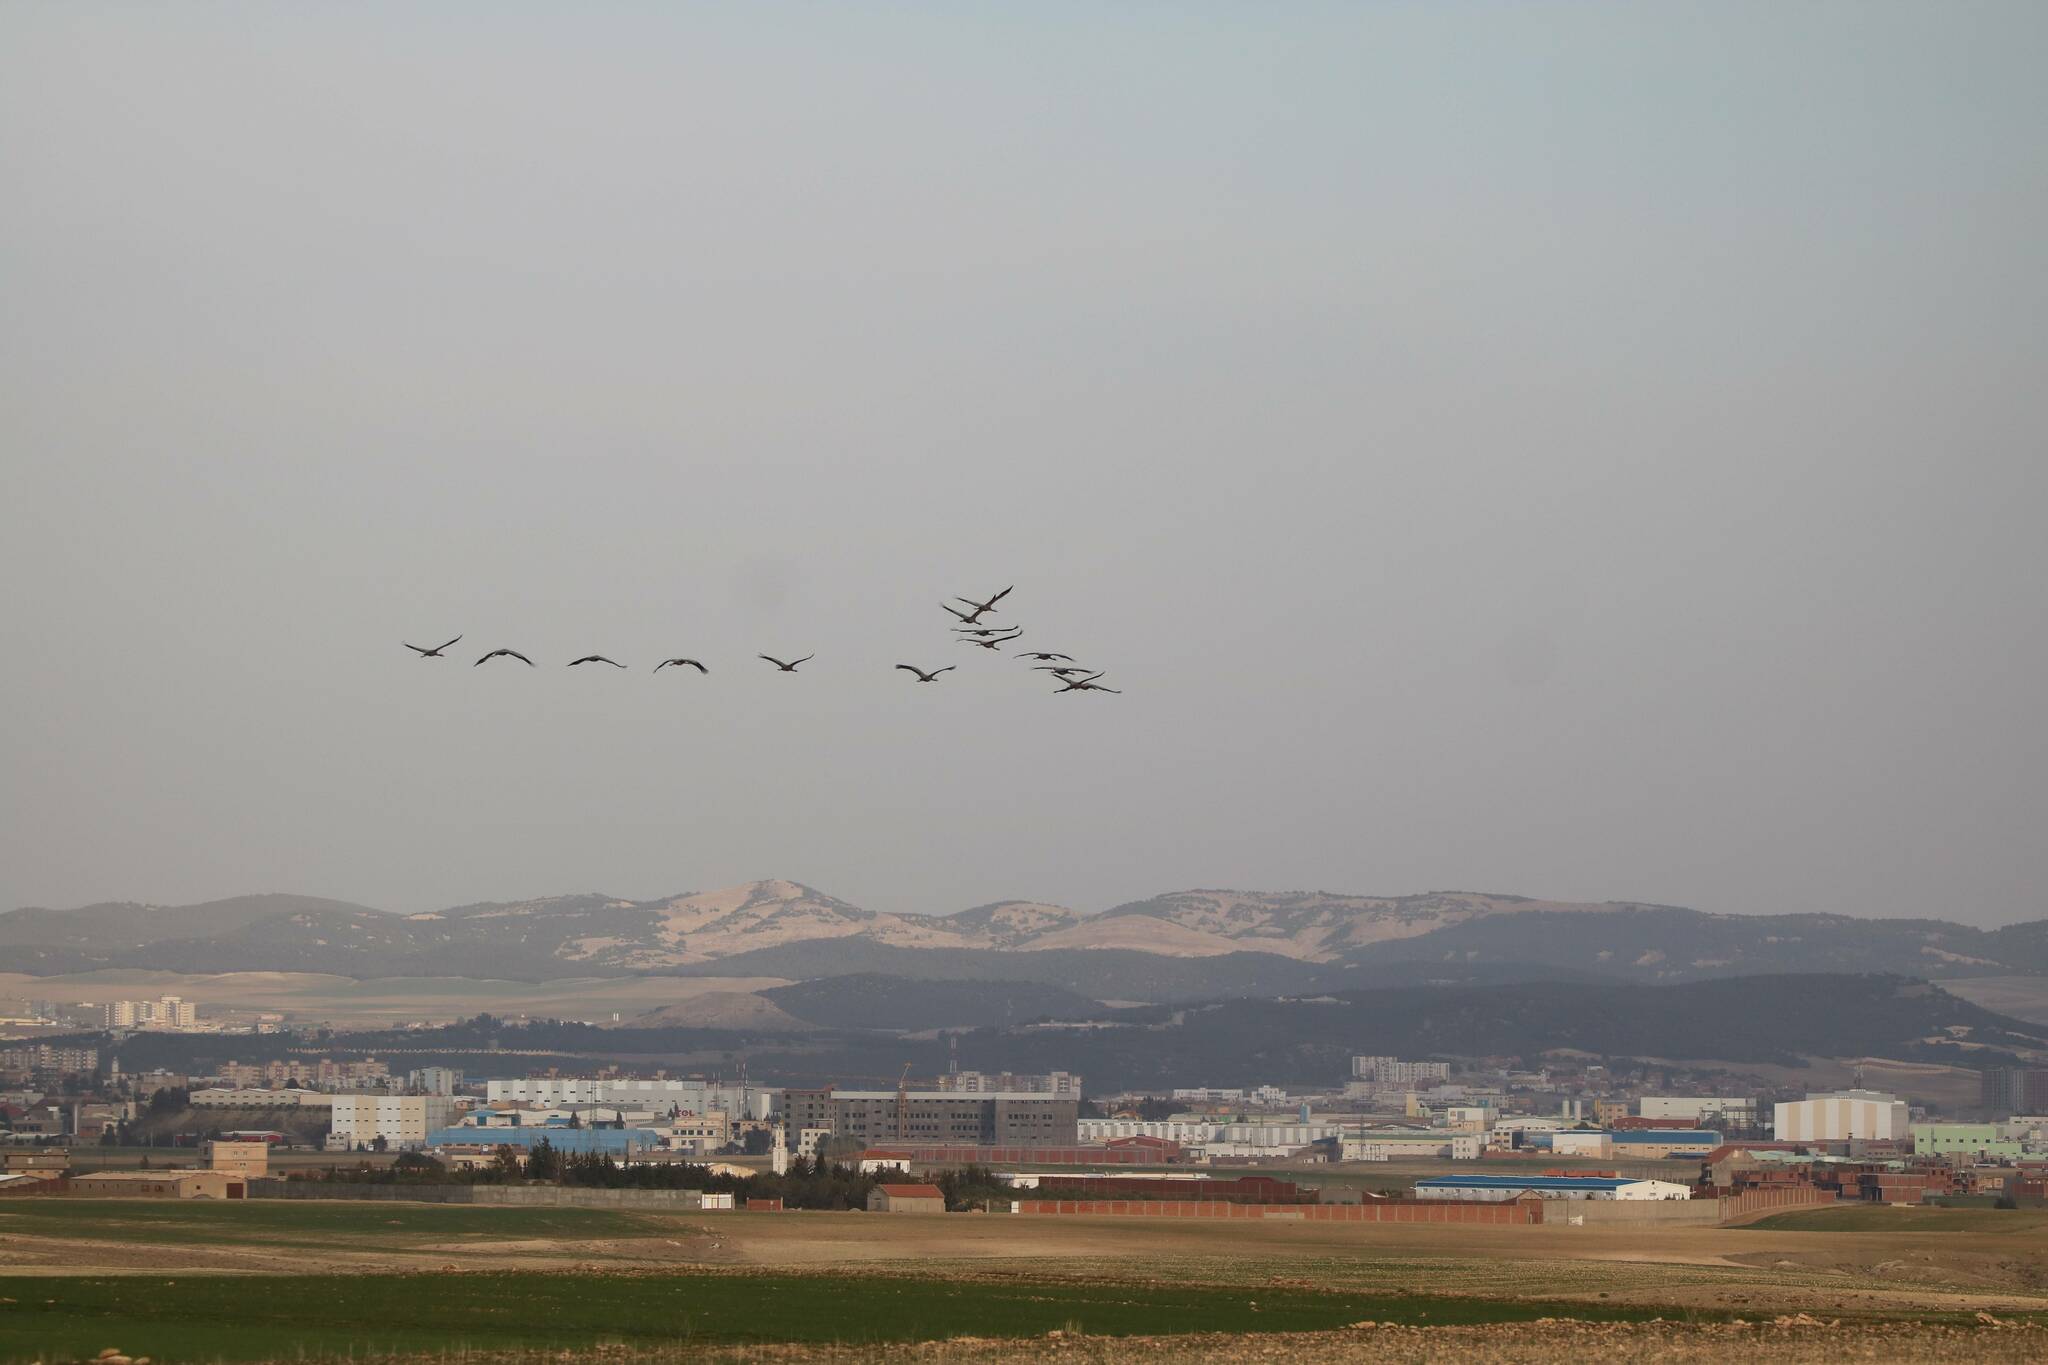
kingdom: Animalia
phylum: Chordata
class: Aves
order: Gruiformes
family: Gruidae
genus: Grus
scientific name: Grus grus
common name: Common crane
